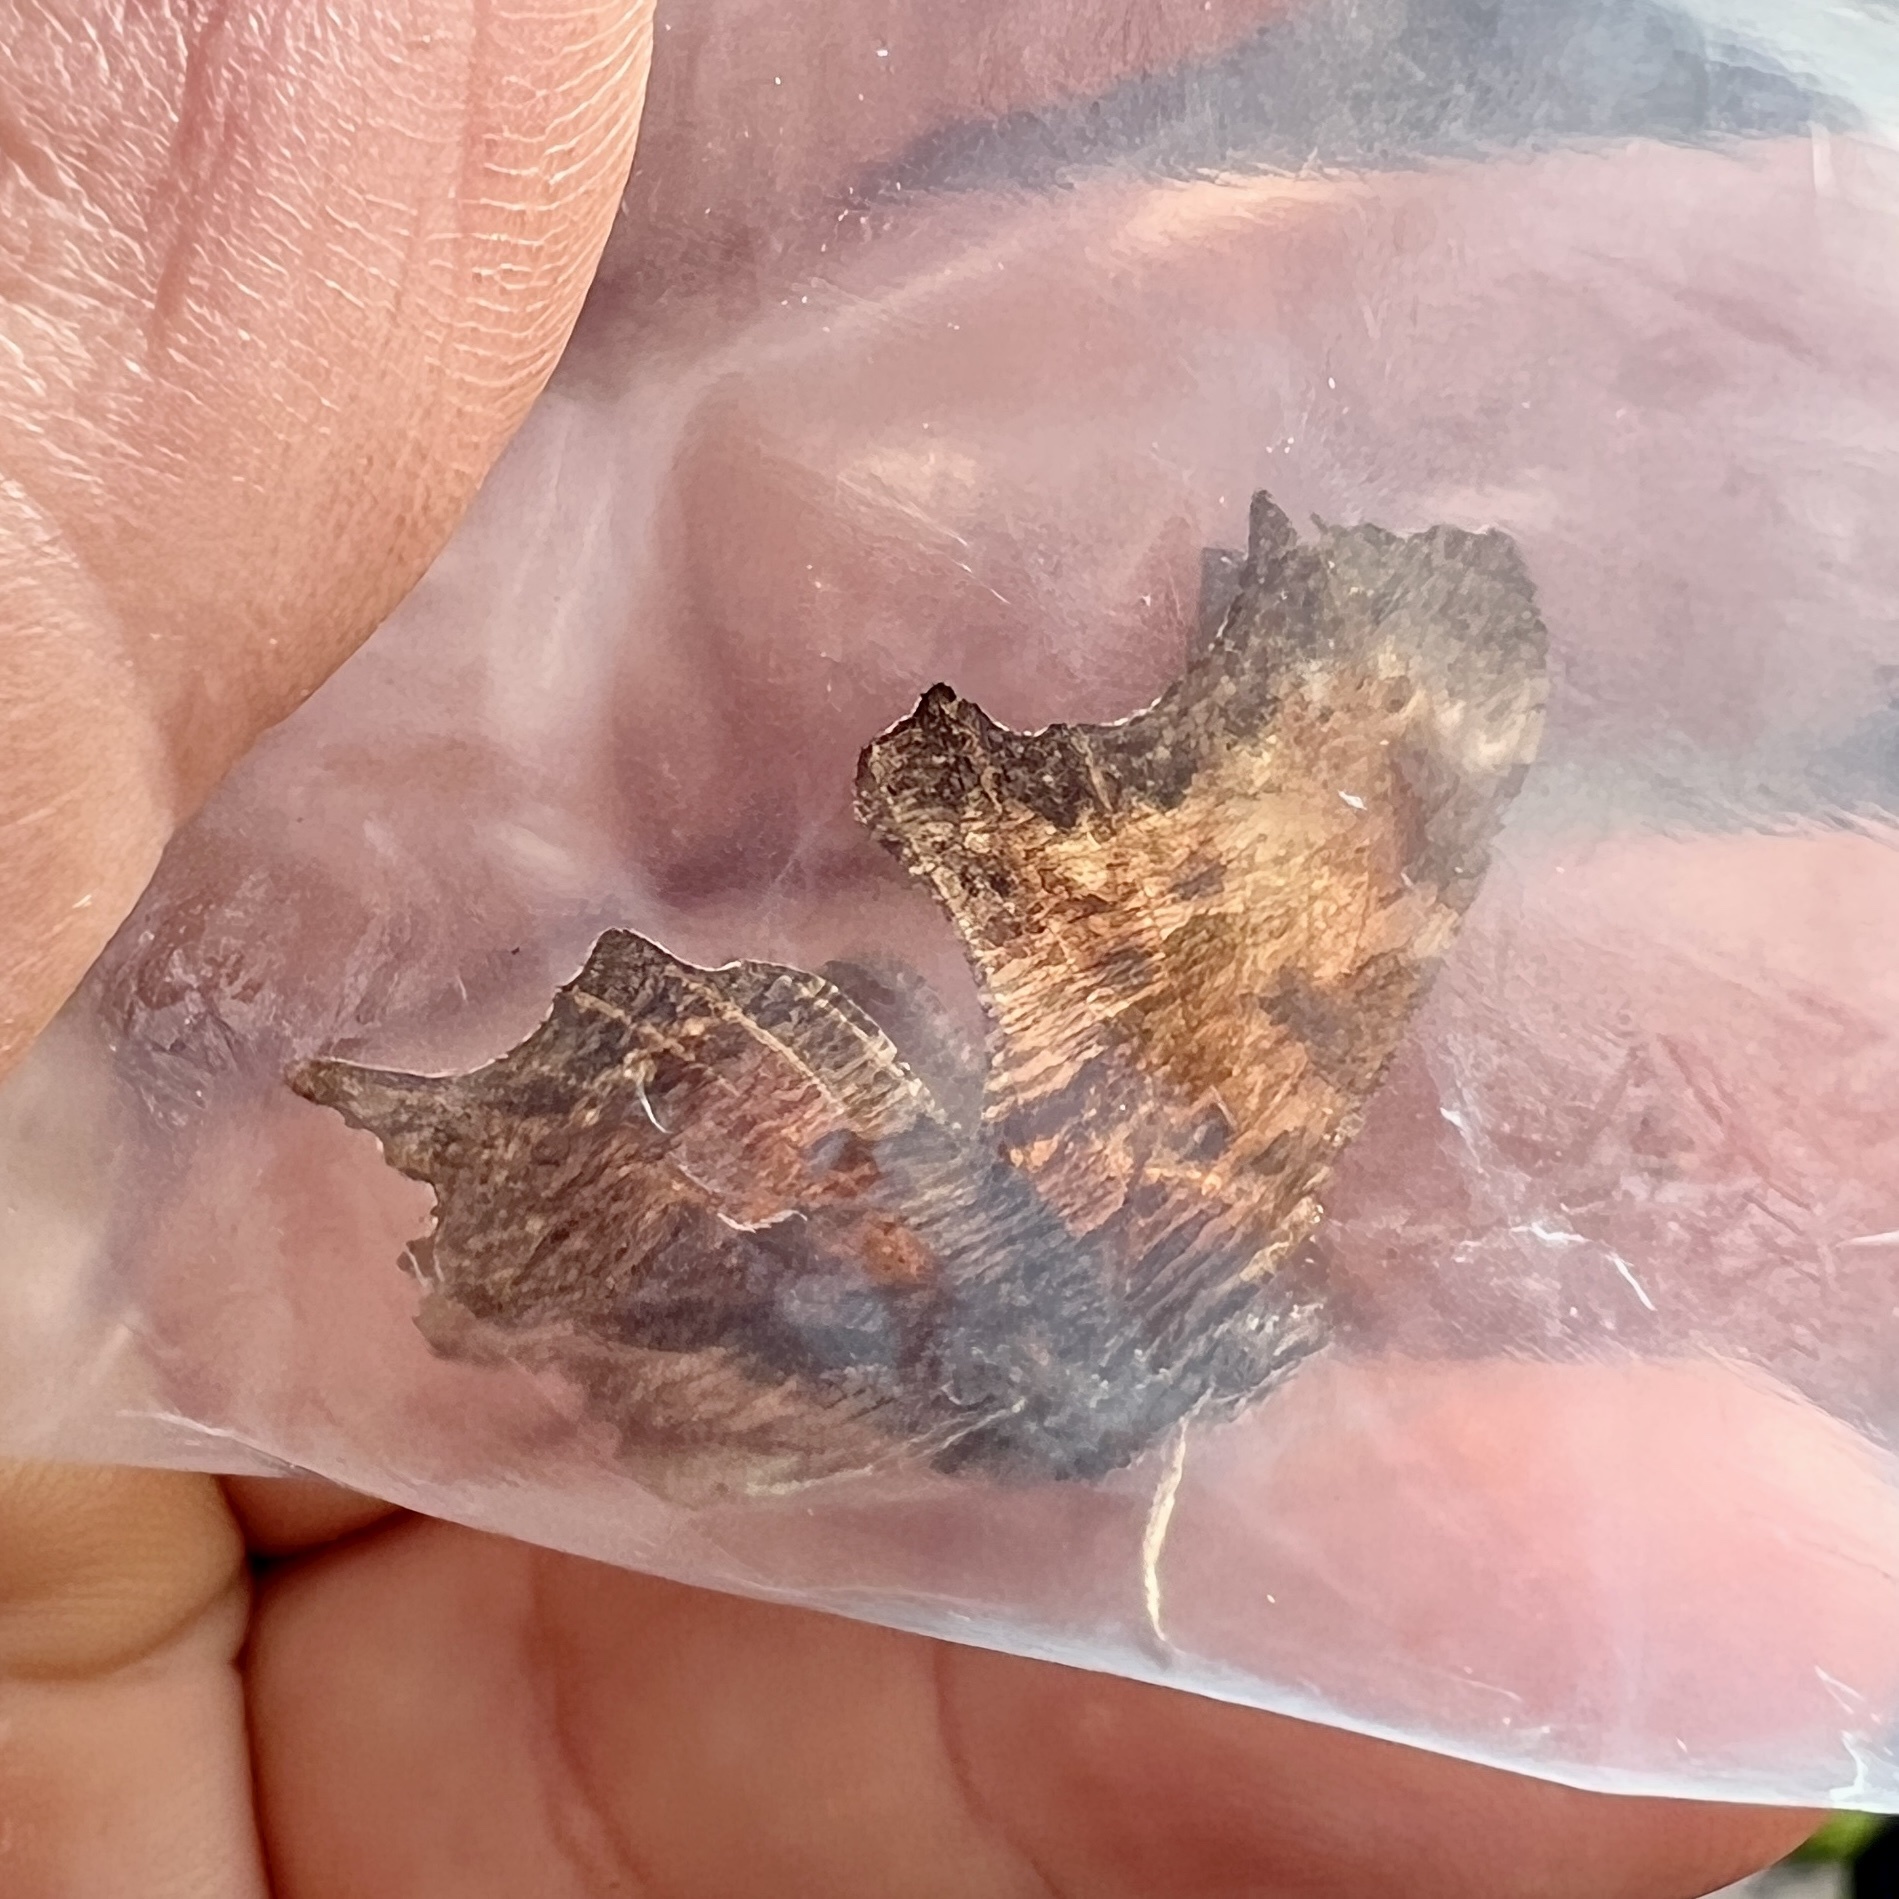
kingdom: Animalia
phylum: Arthropoda
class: Insecta
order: Lepidoptera
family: Nymphalidae
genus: Polygonia
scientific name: Polygonia progne
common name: Gray comma
